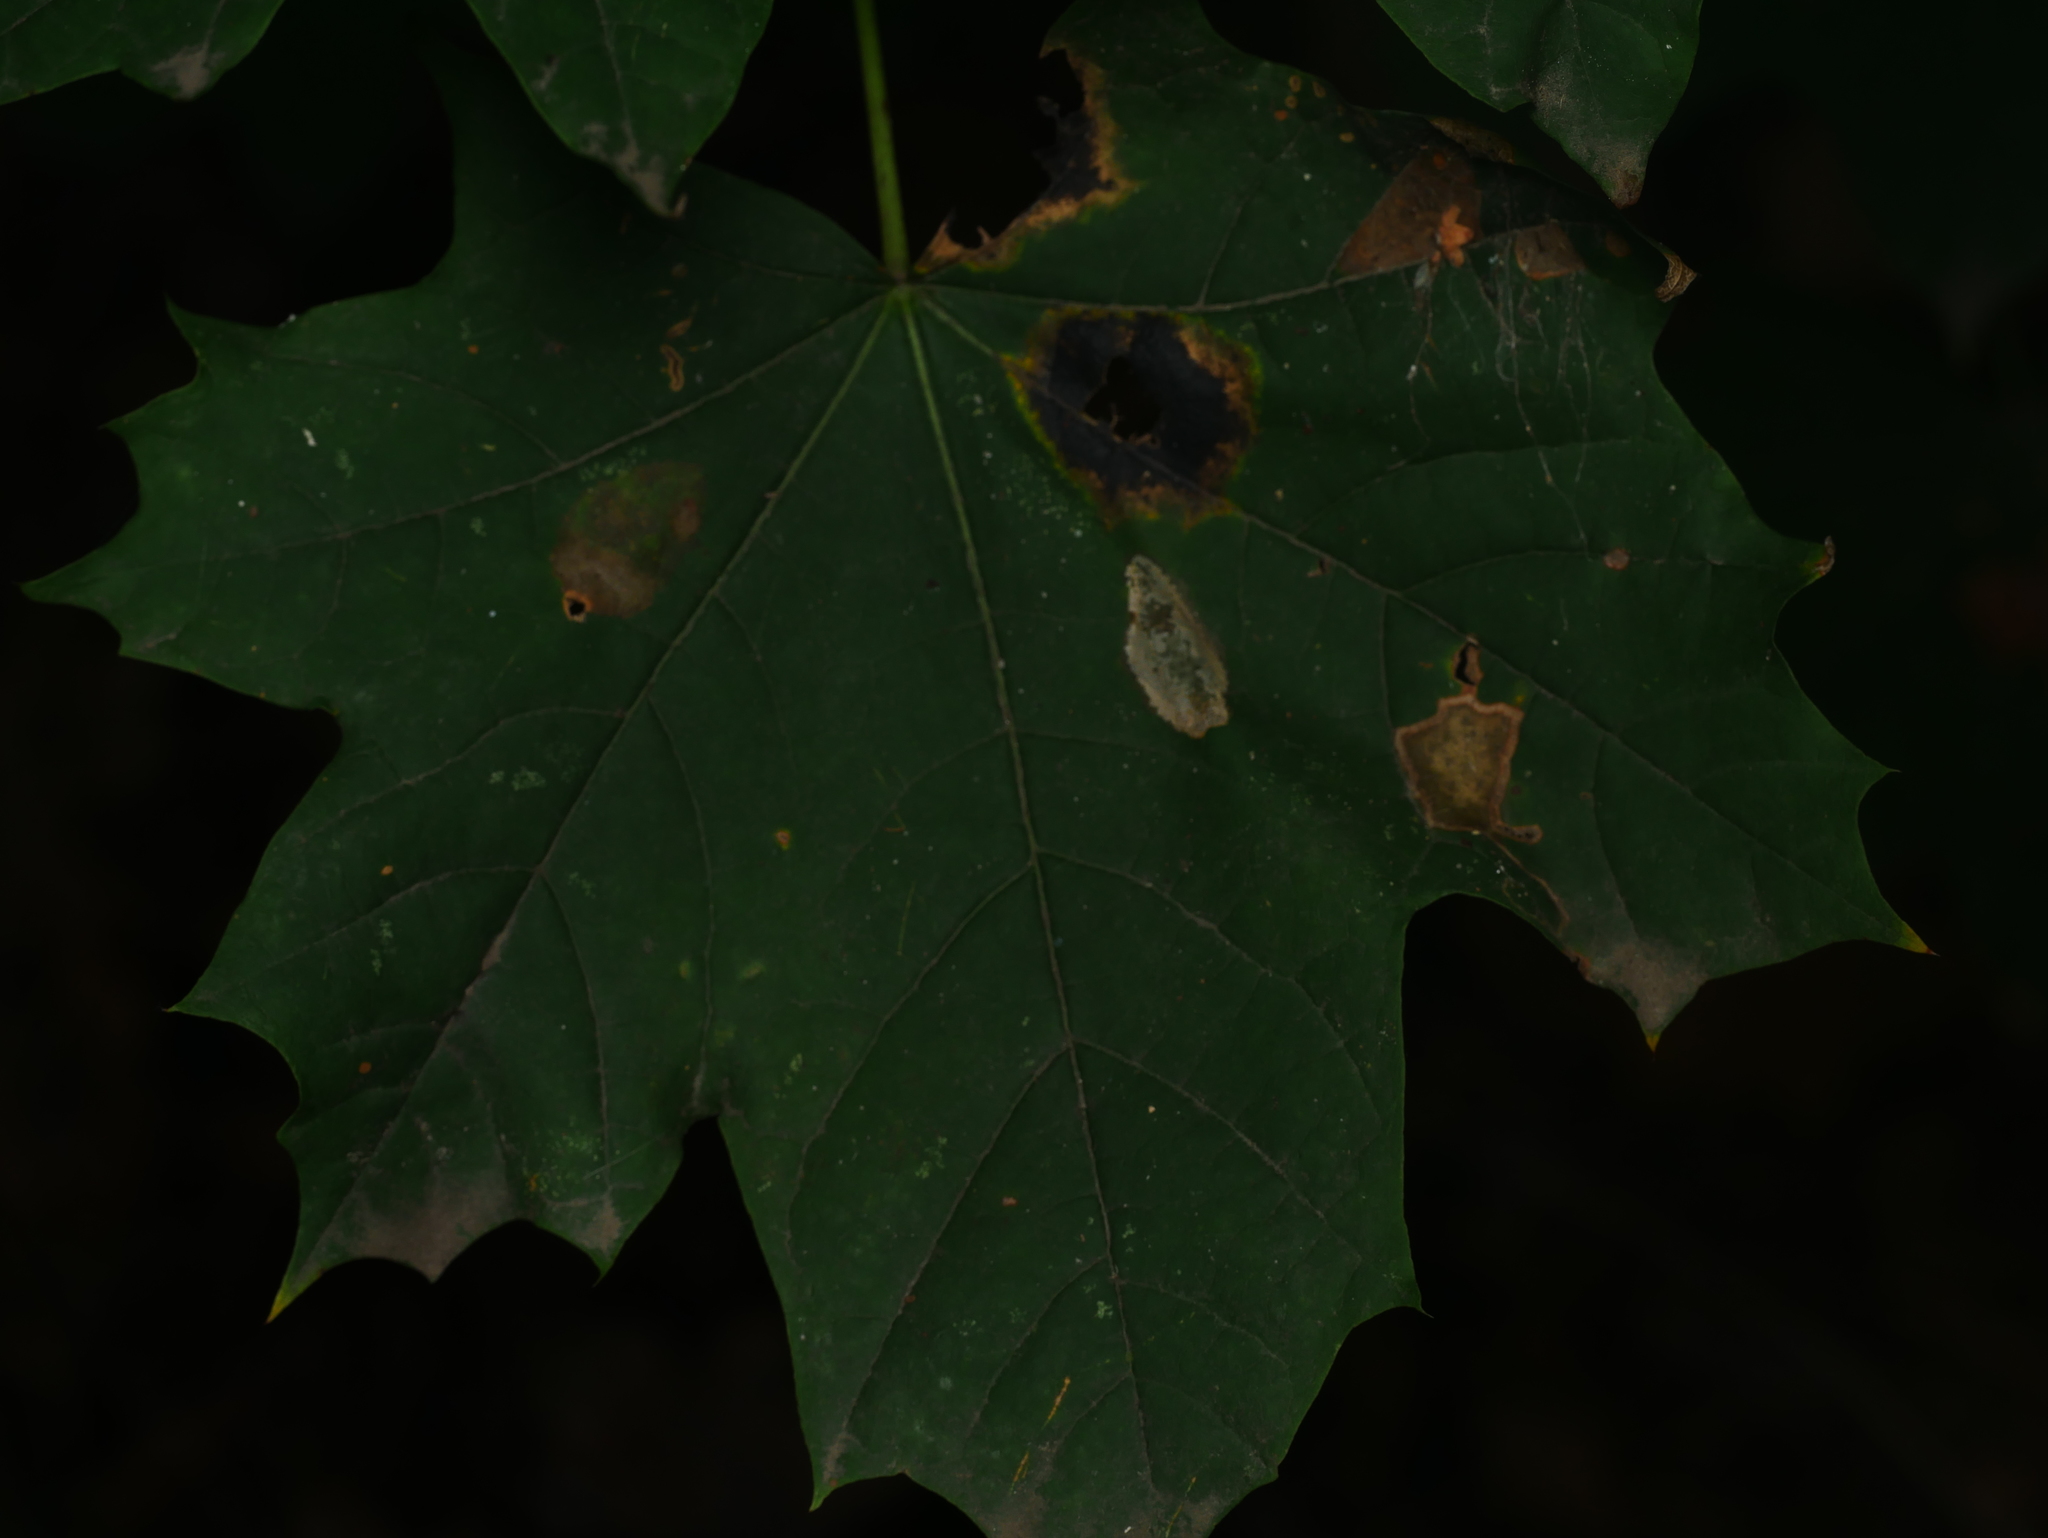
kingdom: Plantae
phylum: Tracheophyta
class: Magnoliopsida
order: Sapindales
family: Sapindaceae
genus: Acer
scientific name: Acer platanoides
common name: Norway maple
